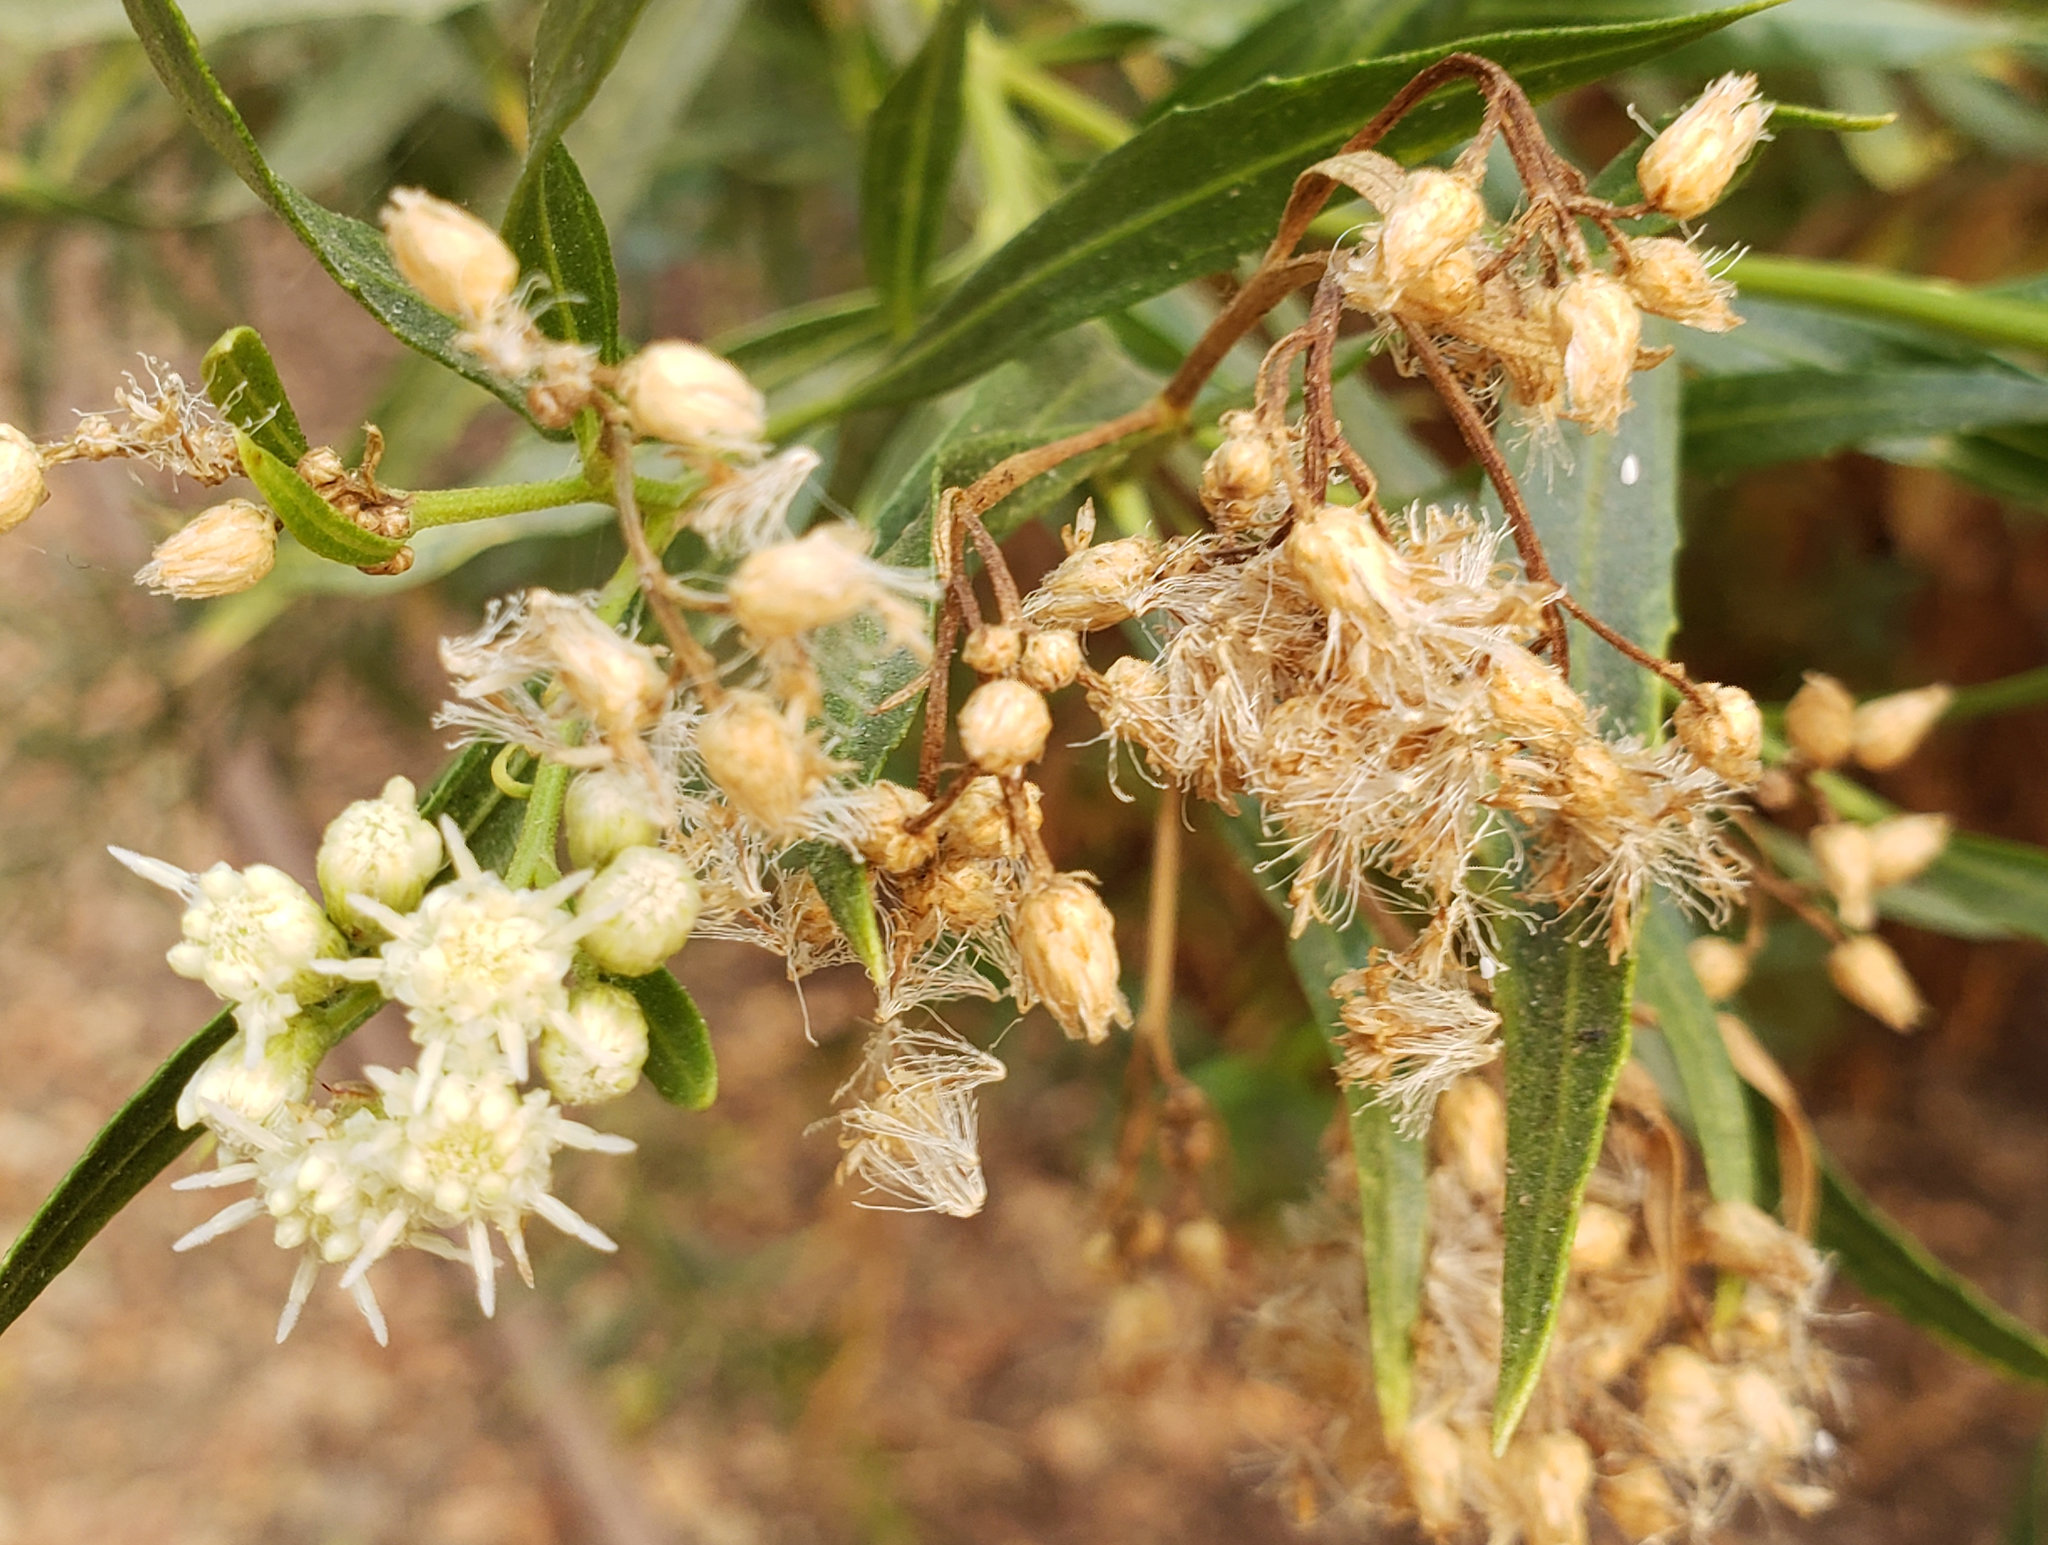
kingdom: Plantae
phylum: Tracheophyta
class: Magnoliopsida
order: Asterales
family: Asteraceae
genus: Baccharis
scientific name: Baccharis salicifolia
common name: Sticky baccharis
